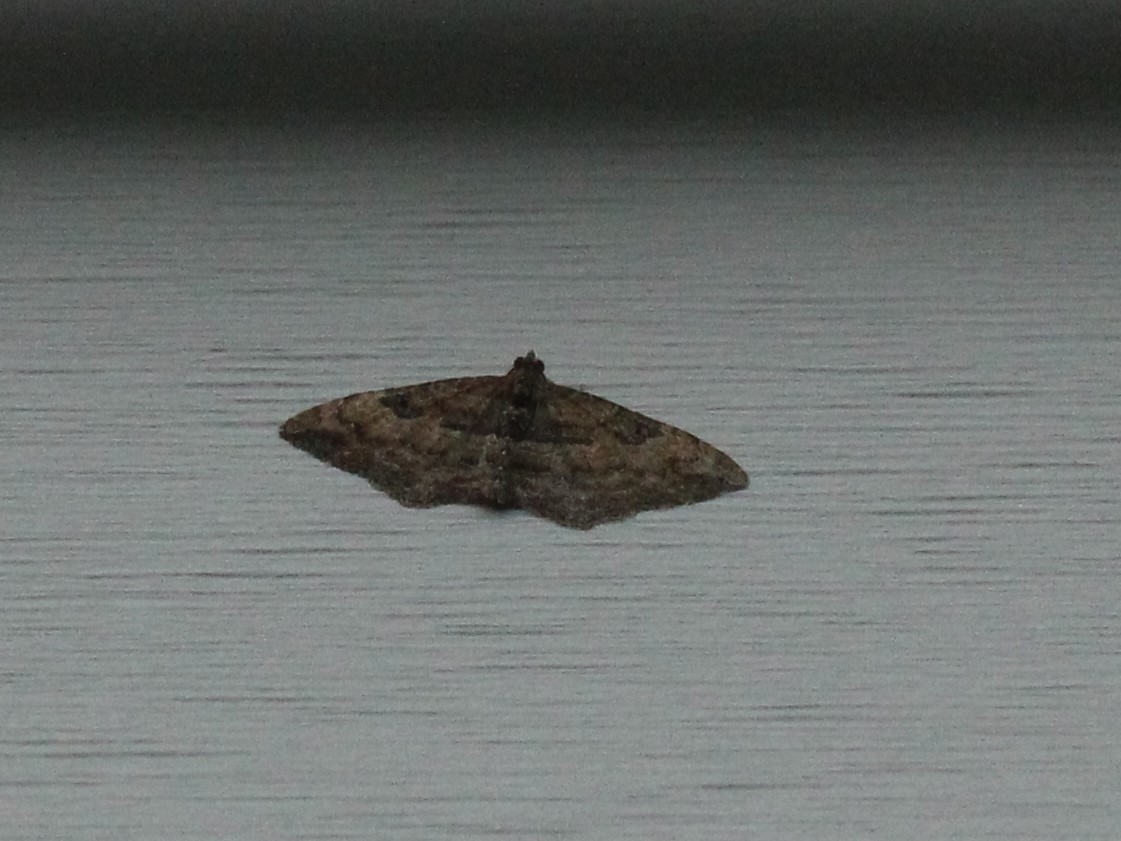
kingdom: Animalia
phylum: Arthropoda
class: Insecta
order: Lepidoptera
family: Geometridae
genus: Orthonama
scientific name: Orthonama obstipata
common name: The gem
